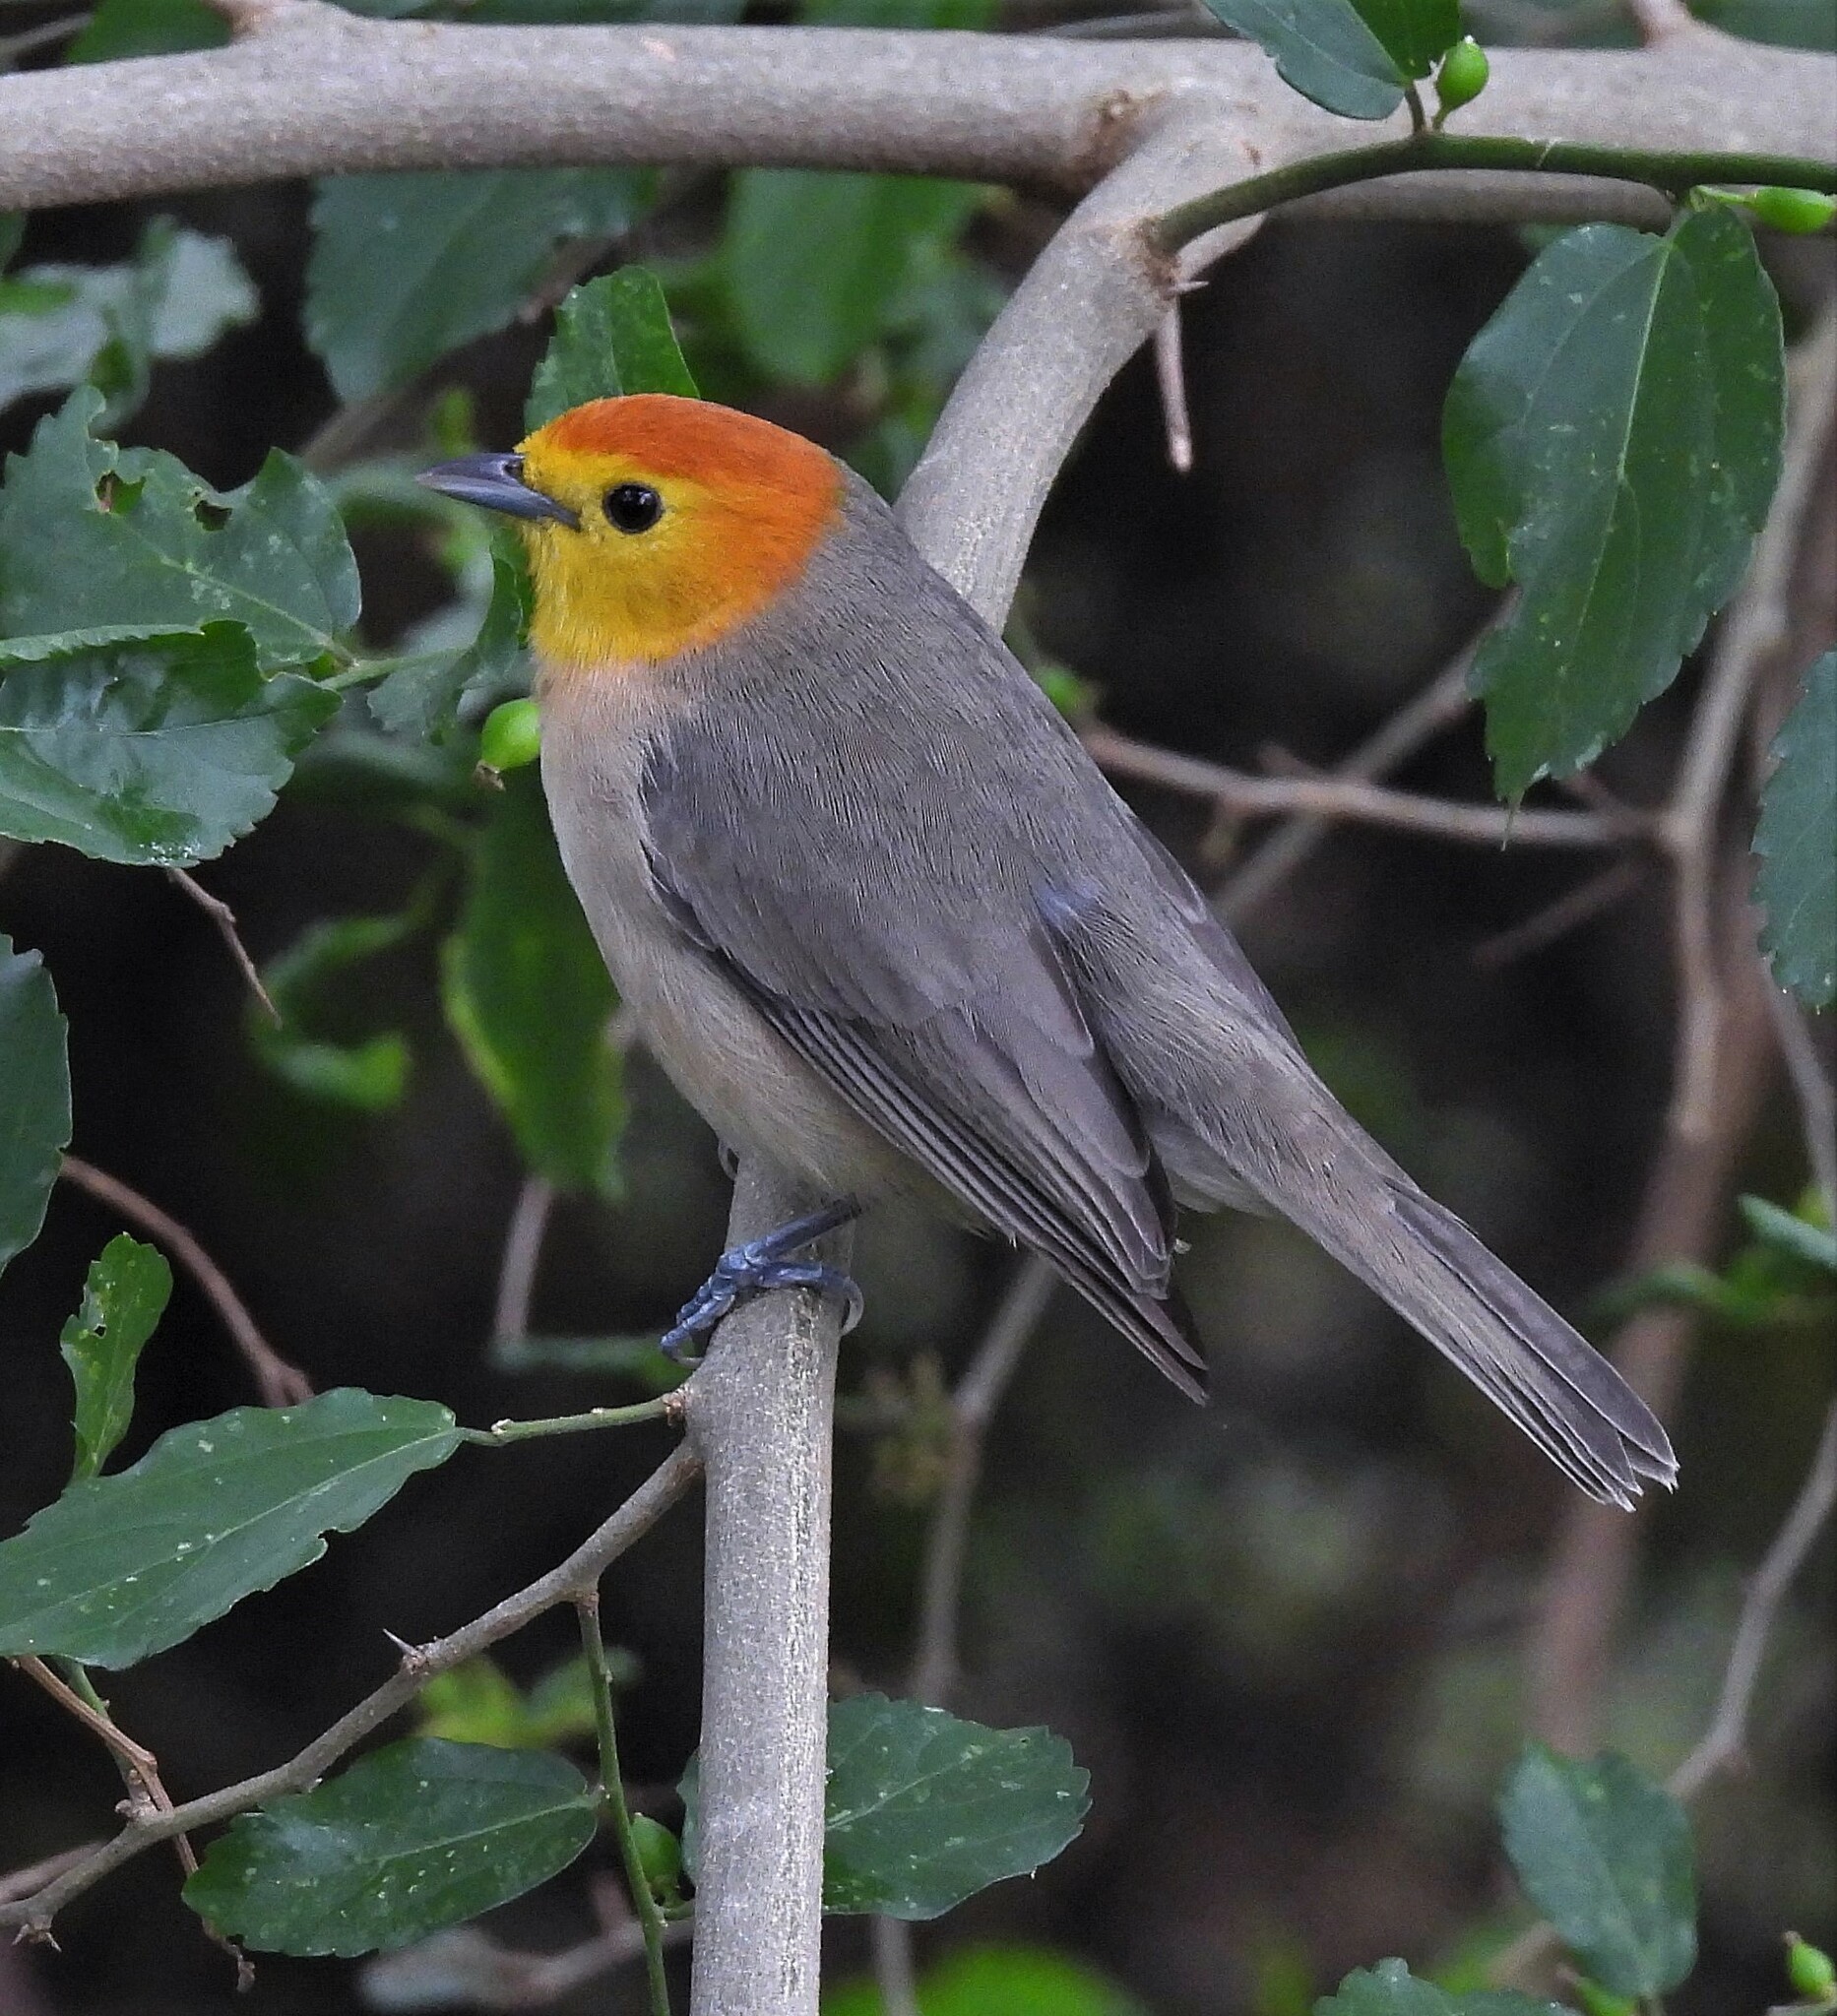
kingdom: Animalia
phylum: Chordata
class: Aves
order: Passeriformes
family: Thraupidae
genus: Thlypopsis
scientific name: Thlypopsis sordida
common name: Orange-headed tanager
